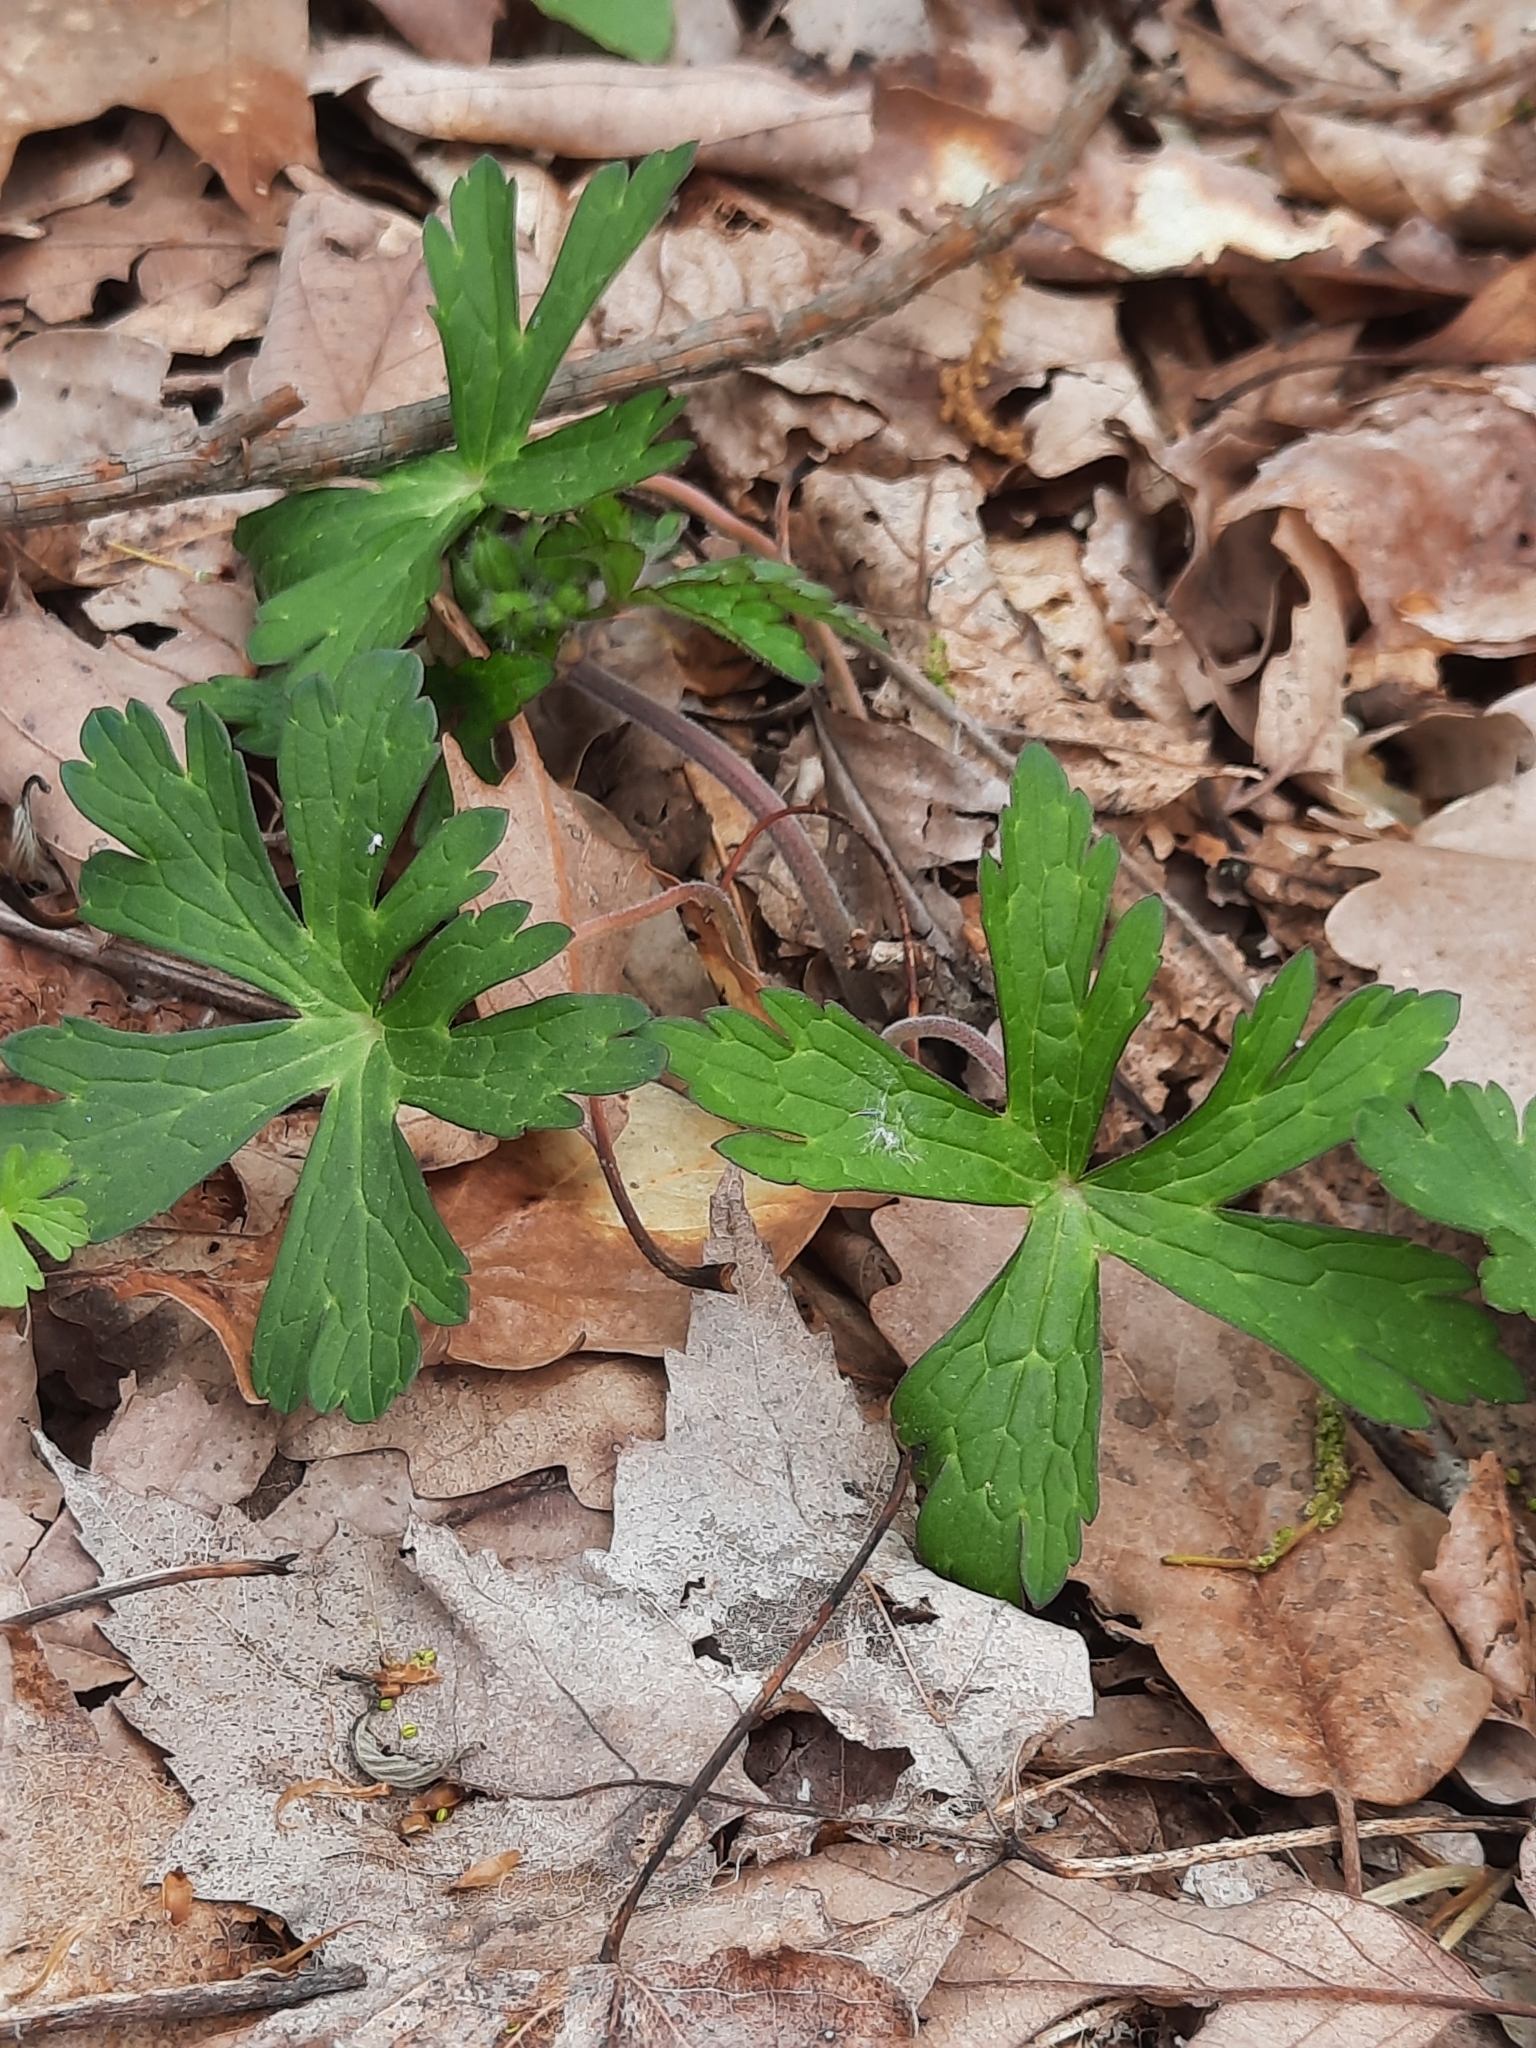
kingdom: Plantae
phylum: Tracheophyta
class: Magnoliopsida
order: Geraniales
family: Geraniaceae
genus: Geranium
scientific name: Geranium maculatum
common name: Spotted geranium
